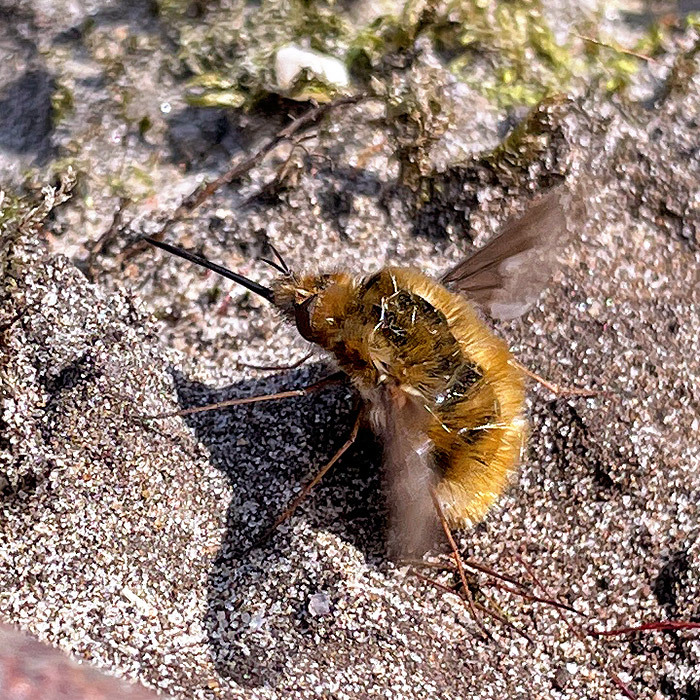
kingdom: Animalia
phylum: Arthropoda
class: Insecta
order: Diptera
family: Bombyliidae
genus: Bombylius
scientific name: Bombylius major
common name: Bee fly
